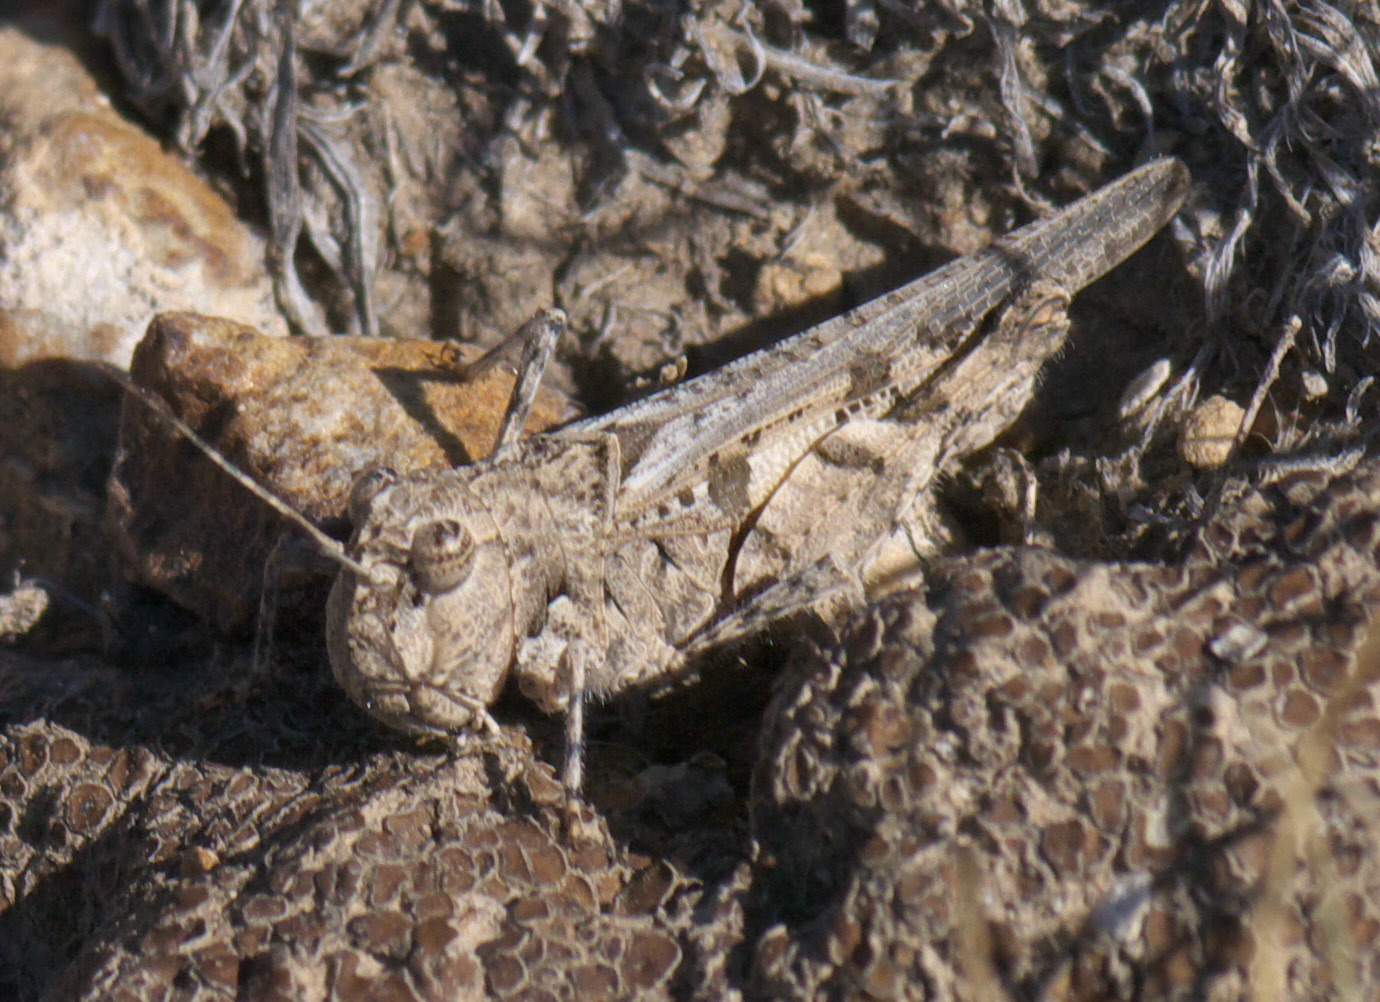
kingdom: Animalia
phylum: Arthropoda
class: Insecta
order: Orthoptera
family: Acrididae
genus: Trachyrhachys
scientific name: Trachyrhachys aspera
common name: Finned grasshopper
